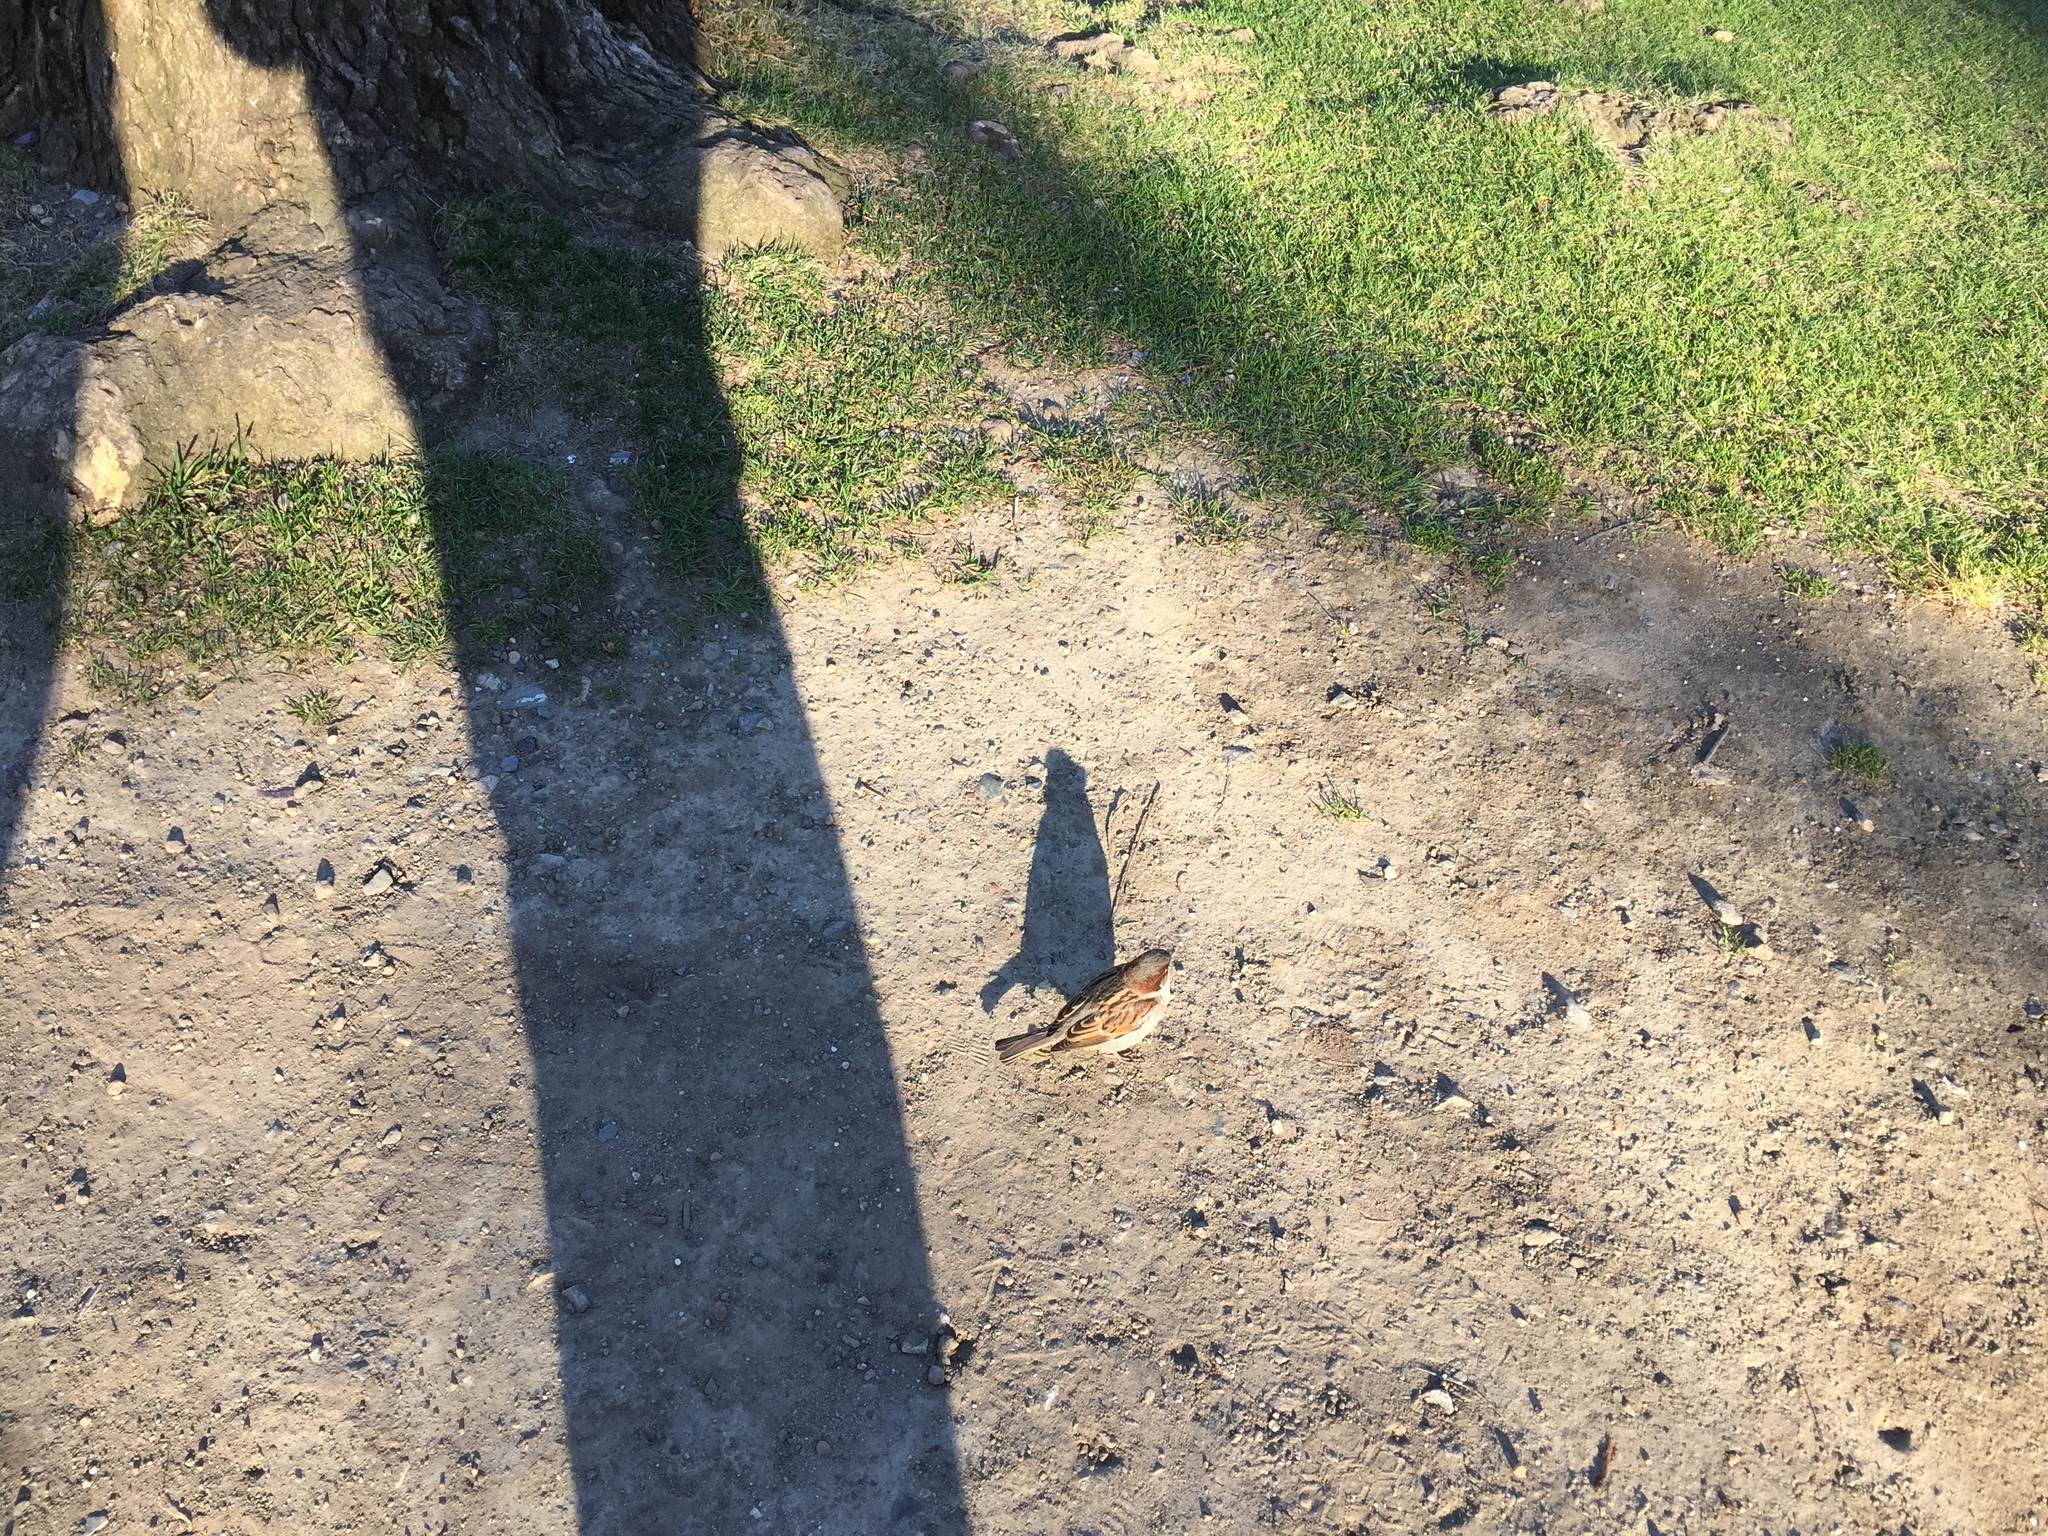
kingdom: Animalia
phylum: Chordata
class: Aves
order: Passeriformes
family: Passeridae
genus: Passer
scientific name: Passer domesticus
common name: House sparrow
